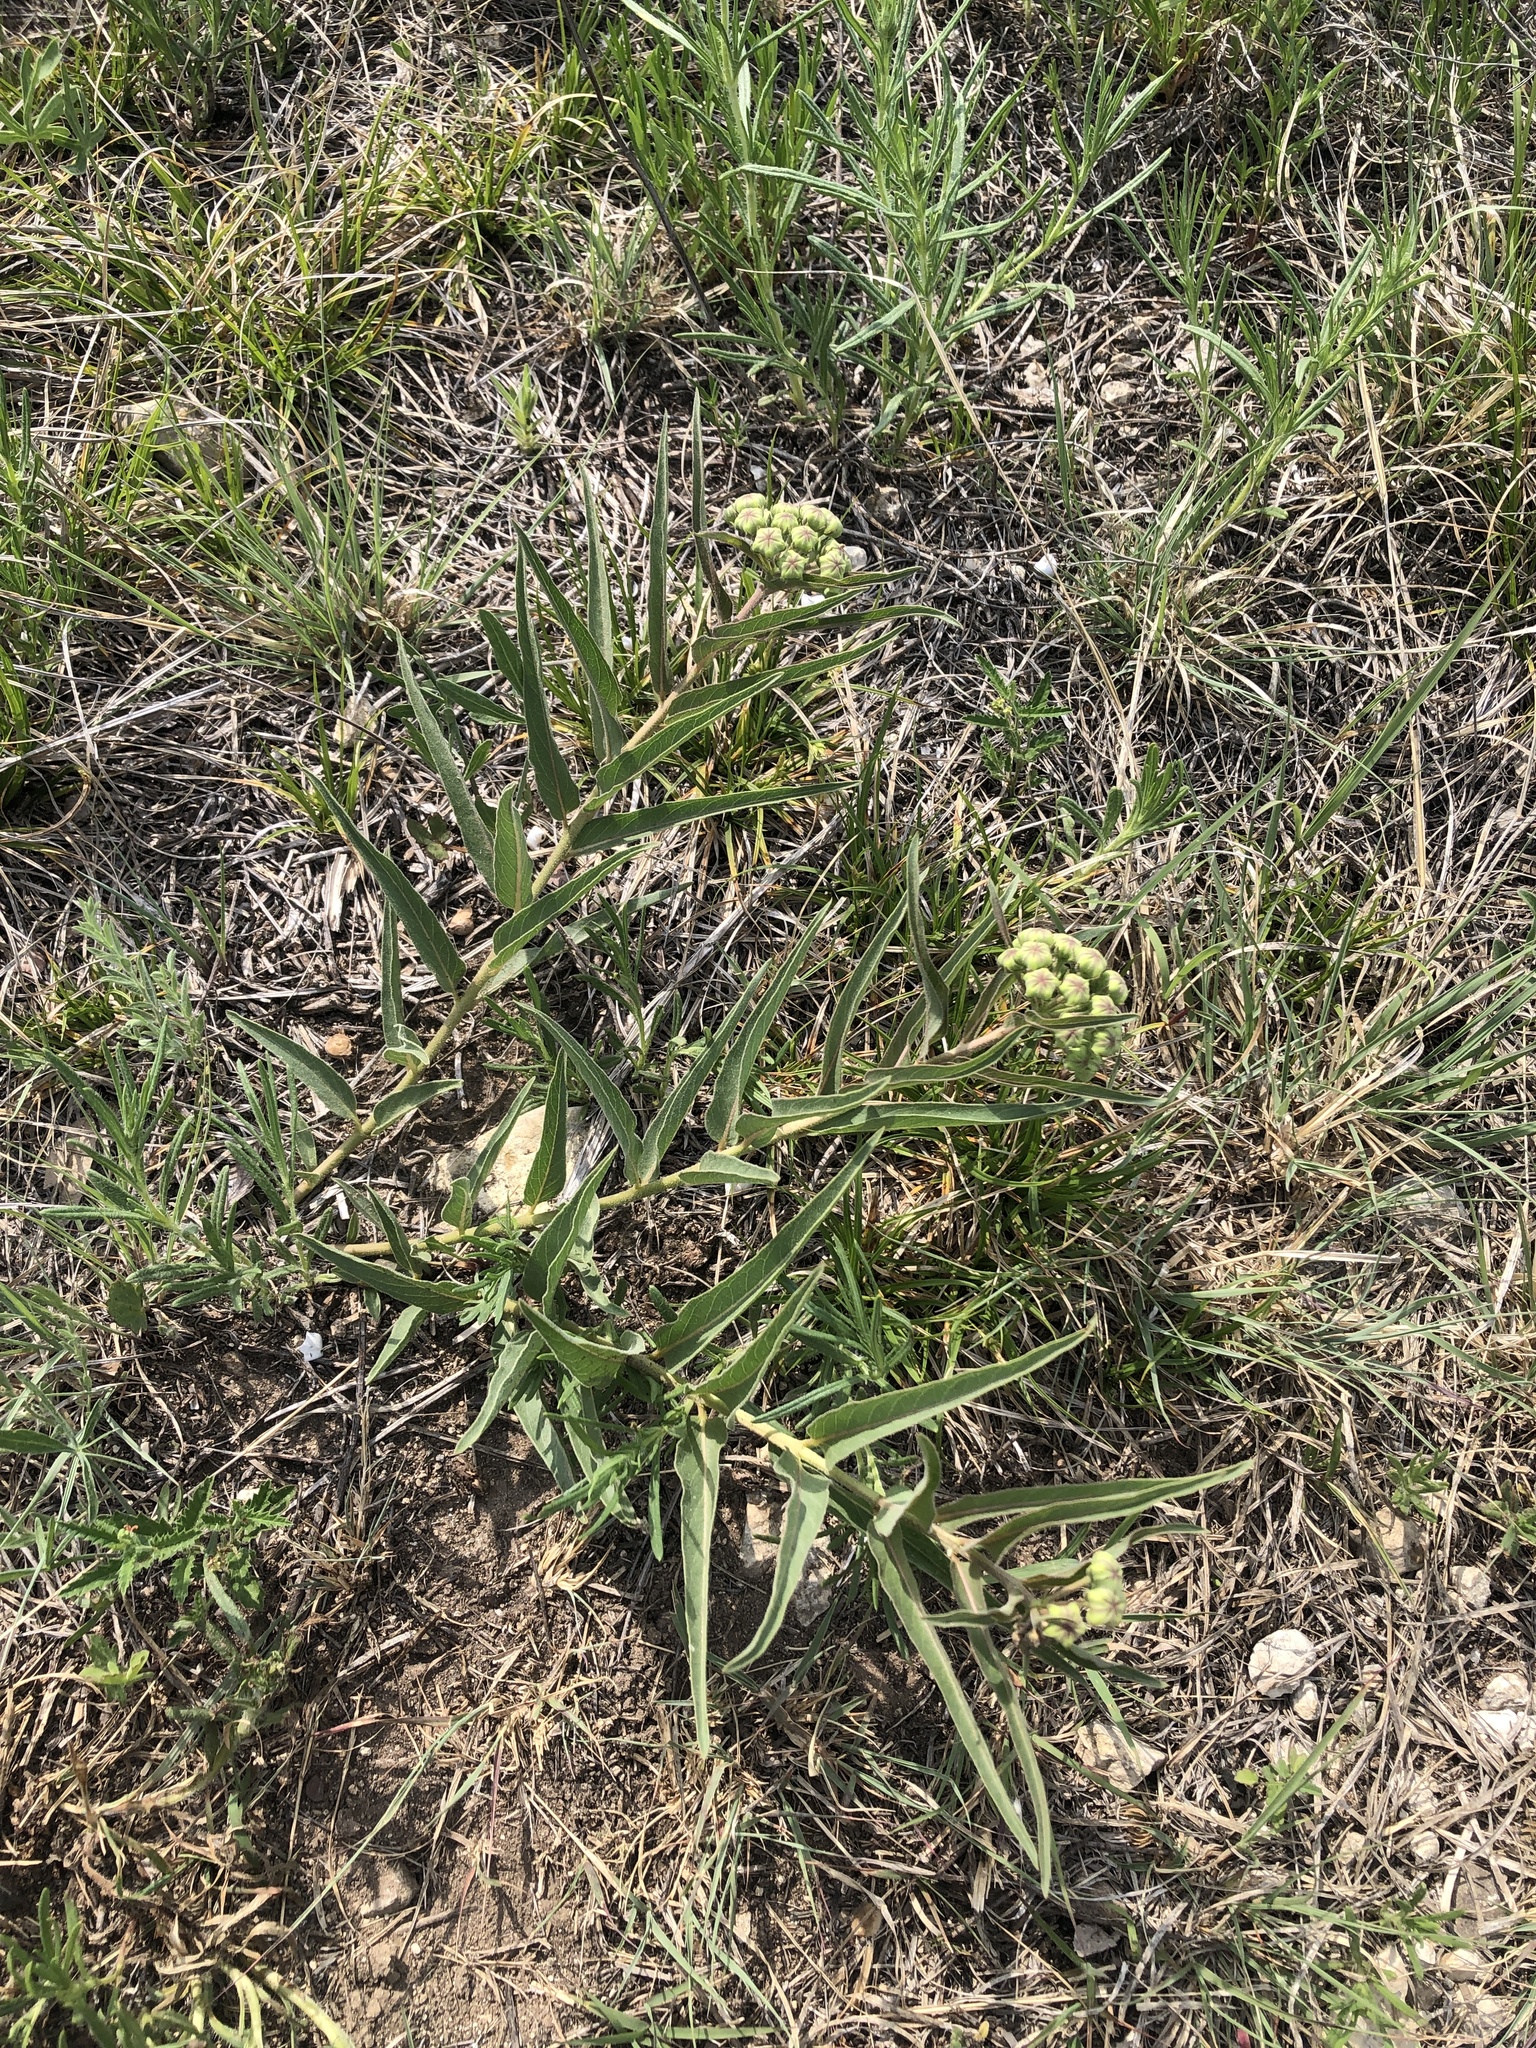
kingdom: Plantae
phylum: Tracheophyta
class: Magnoliopsida
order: Gentianales
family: Apocynaceae
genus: Asclepias
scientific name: Asclepias asperula
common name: Antelope horns
